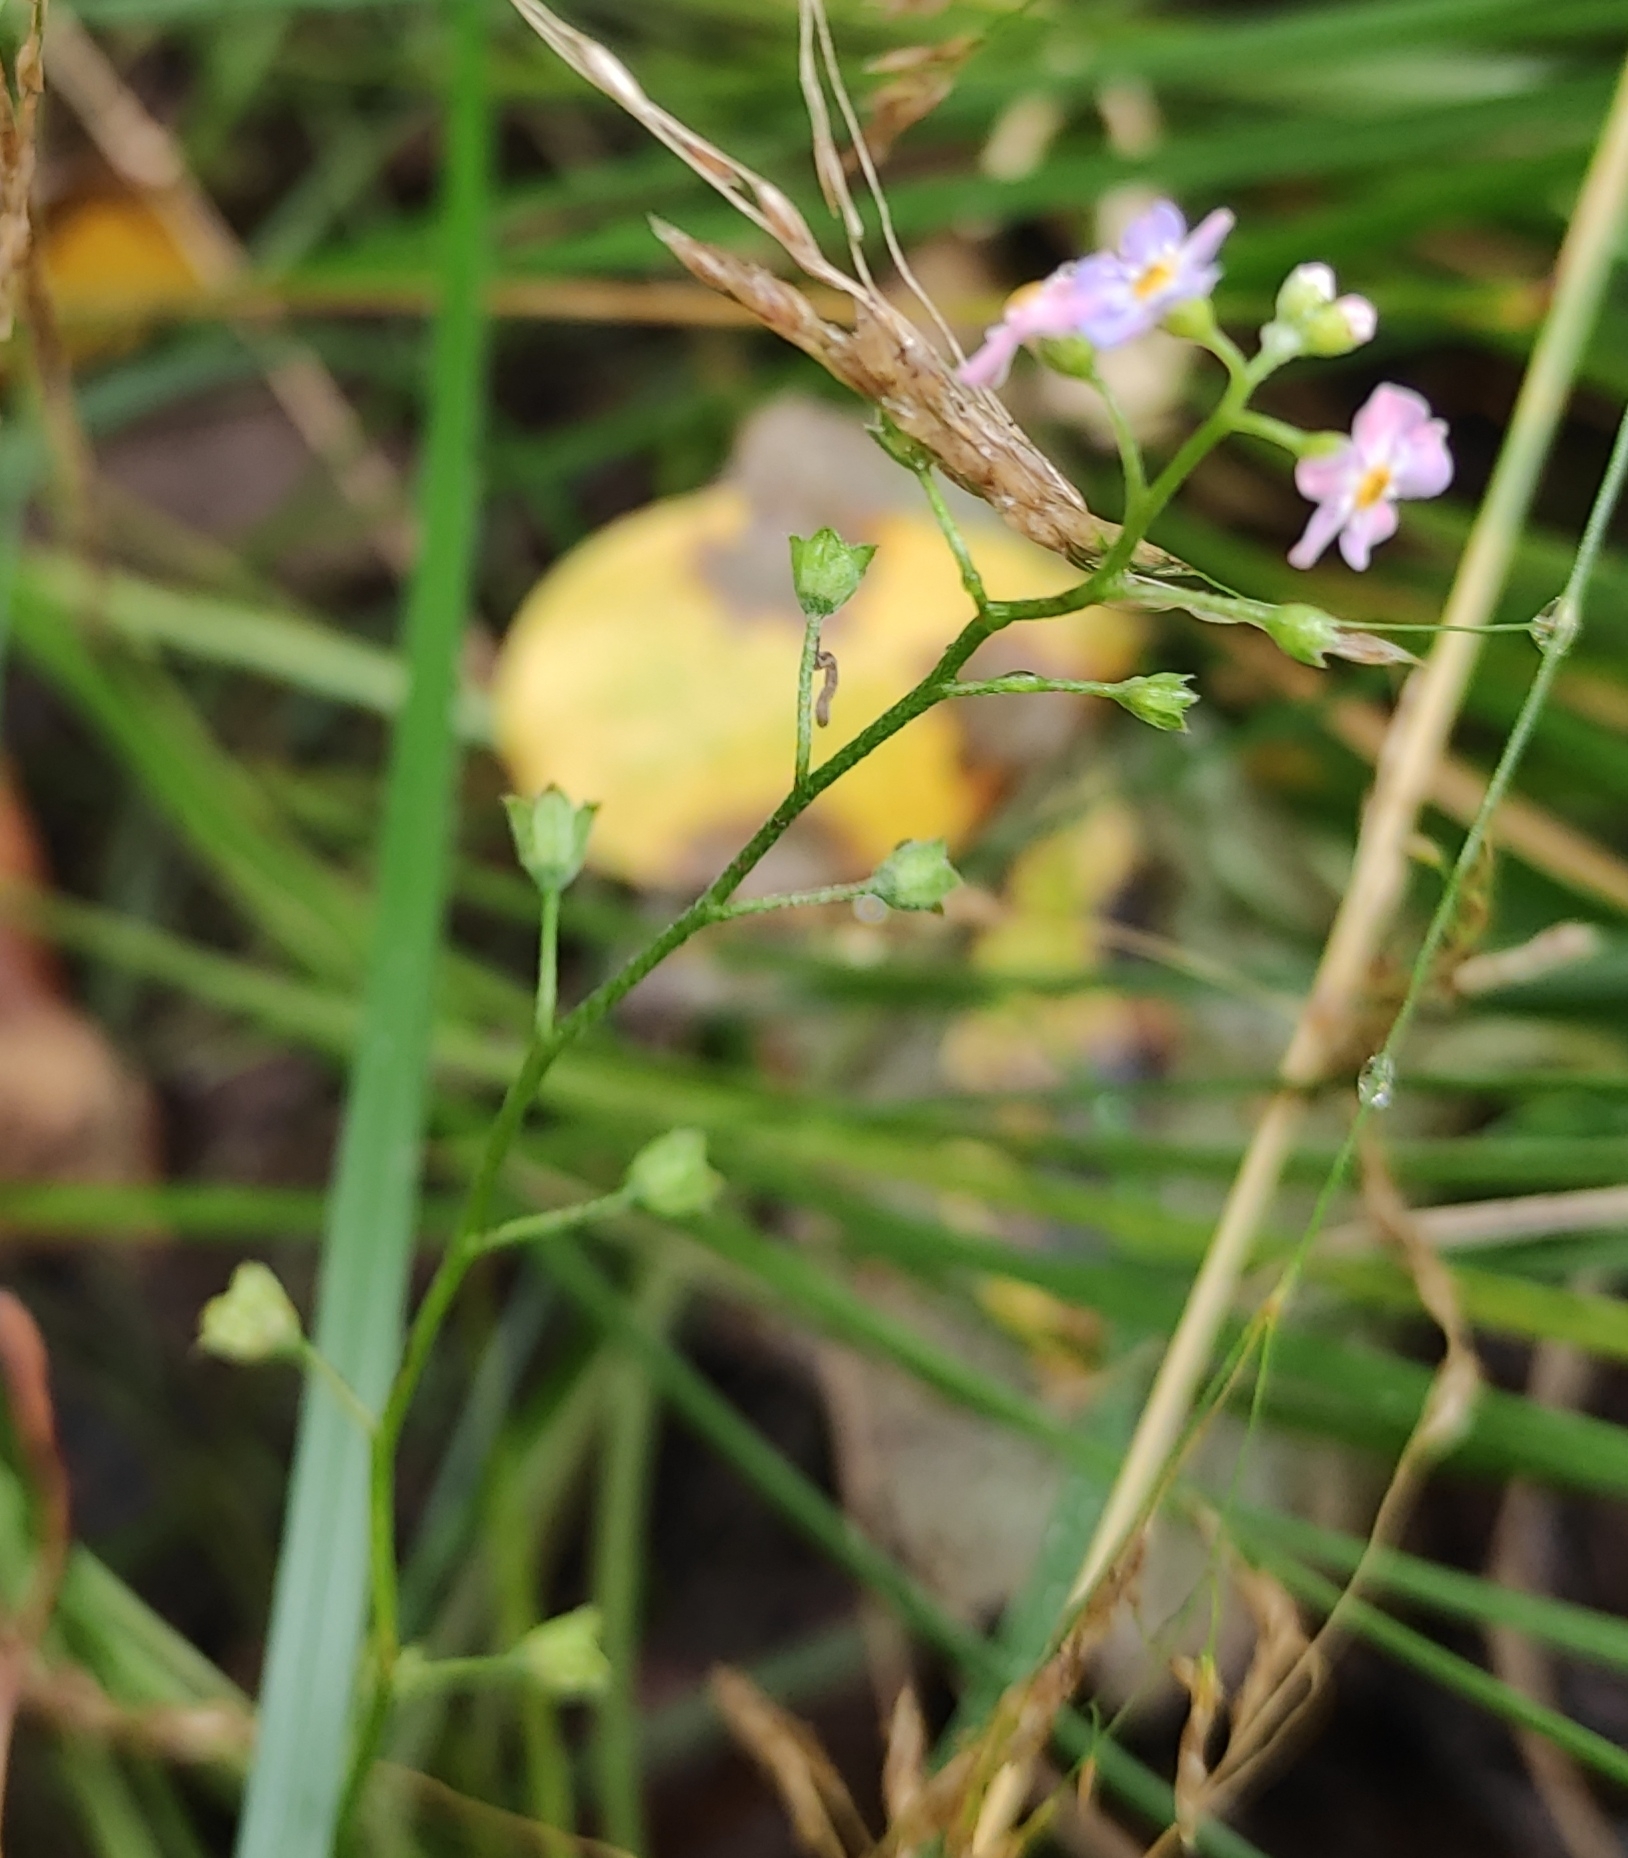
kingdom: Plantae
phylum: Tracheophyta
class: Magnoliopsida
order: Boraginales
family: Boraginaceae
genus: Myosotis
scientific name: Myosotis scorpioides
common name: Water forget-me-not
